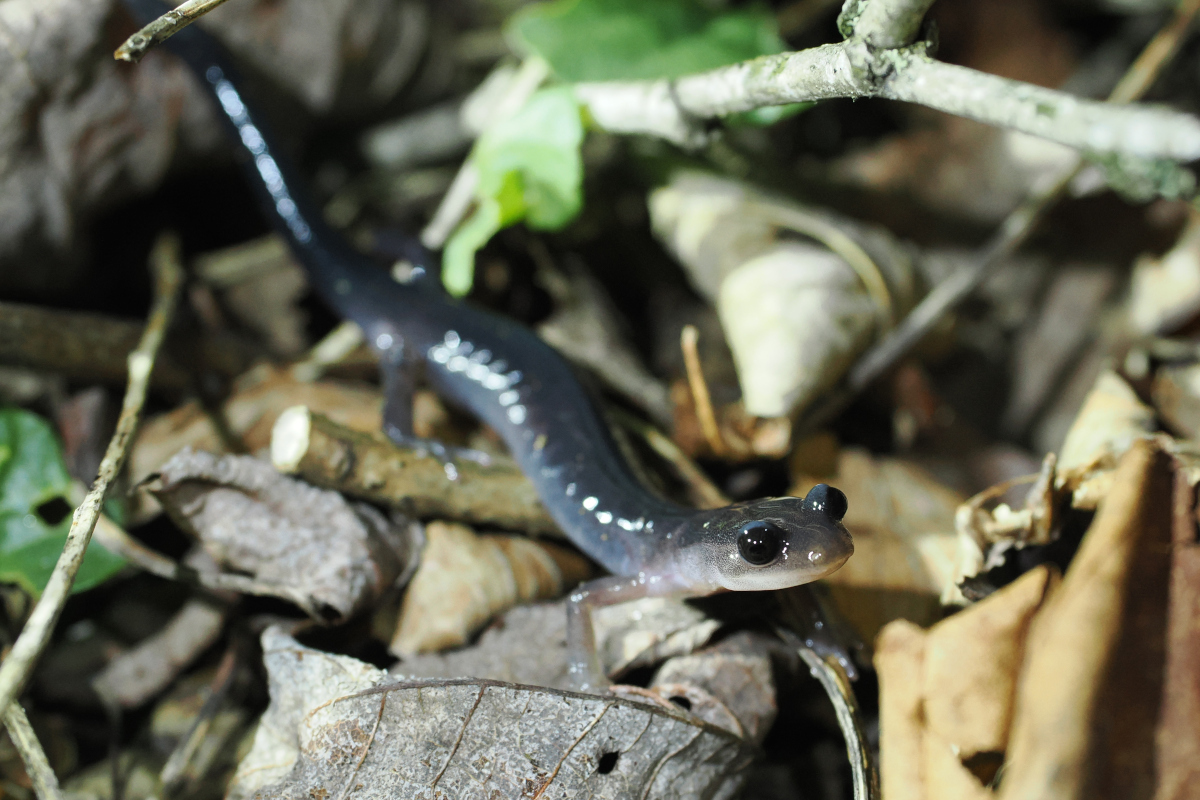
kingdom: Animalia
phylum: Chordata
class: Amphibia
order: Caudata
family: Plethodontidae
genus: Plethodon
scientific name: Plethodon montanus
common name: Northern gray-cheeked salamander
